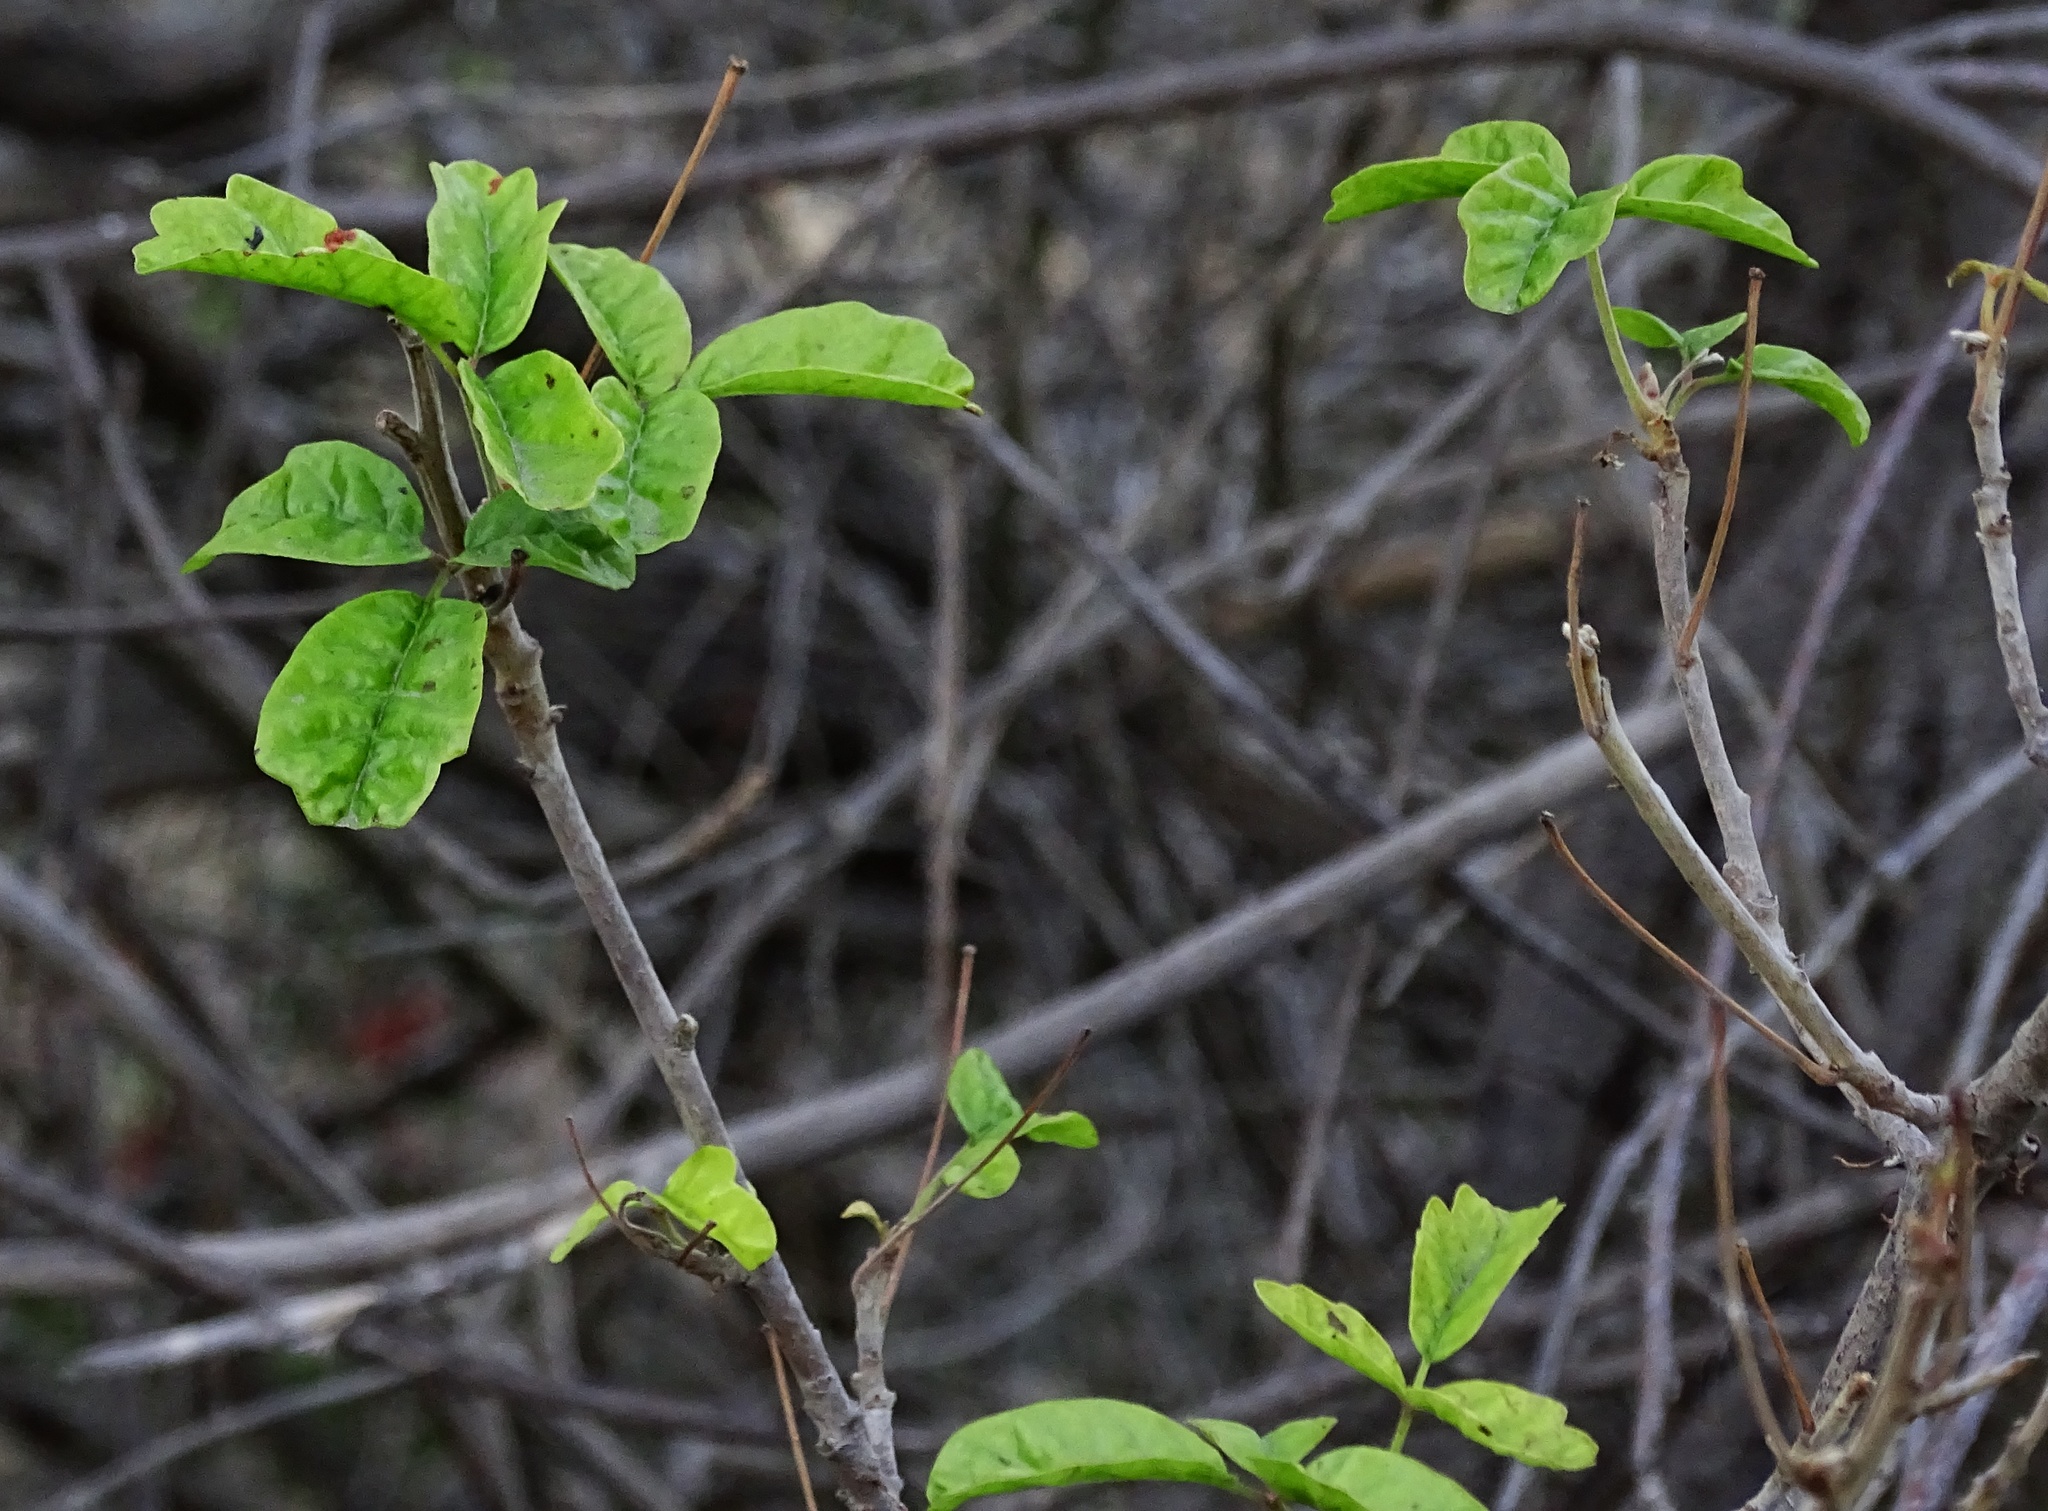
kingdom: Plantae
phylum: Tracheophyta
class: Magnoliopsida
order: Sapindales
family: Anacardiaceae
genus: Toxicodendron
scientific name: Toxicodendron diversilobum
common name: Pacific poison-oak
